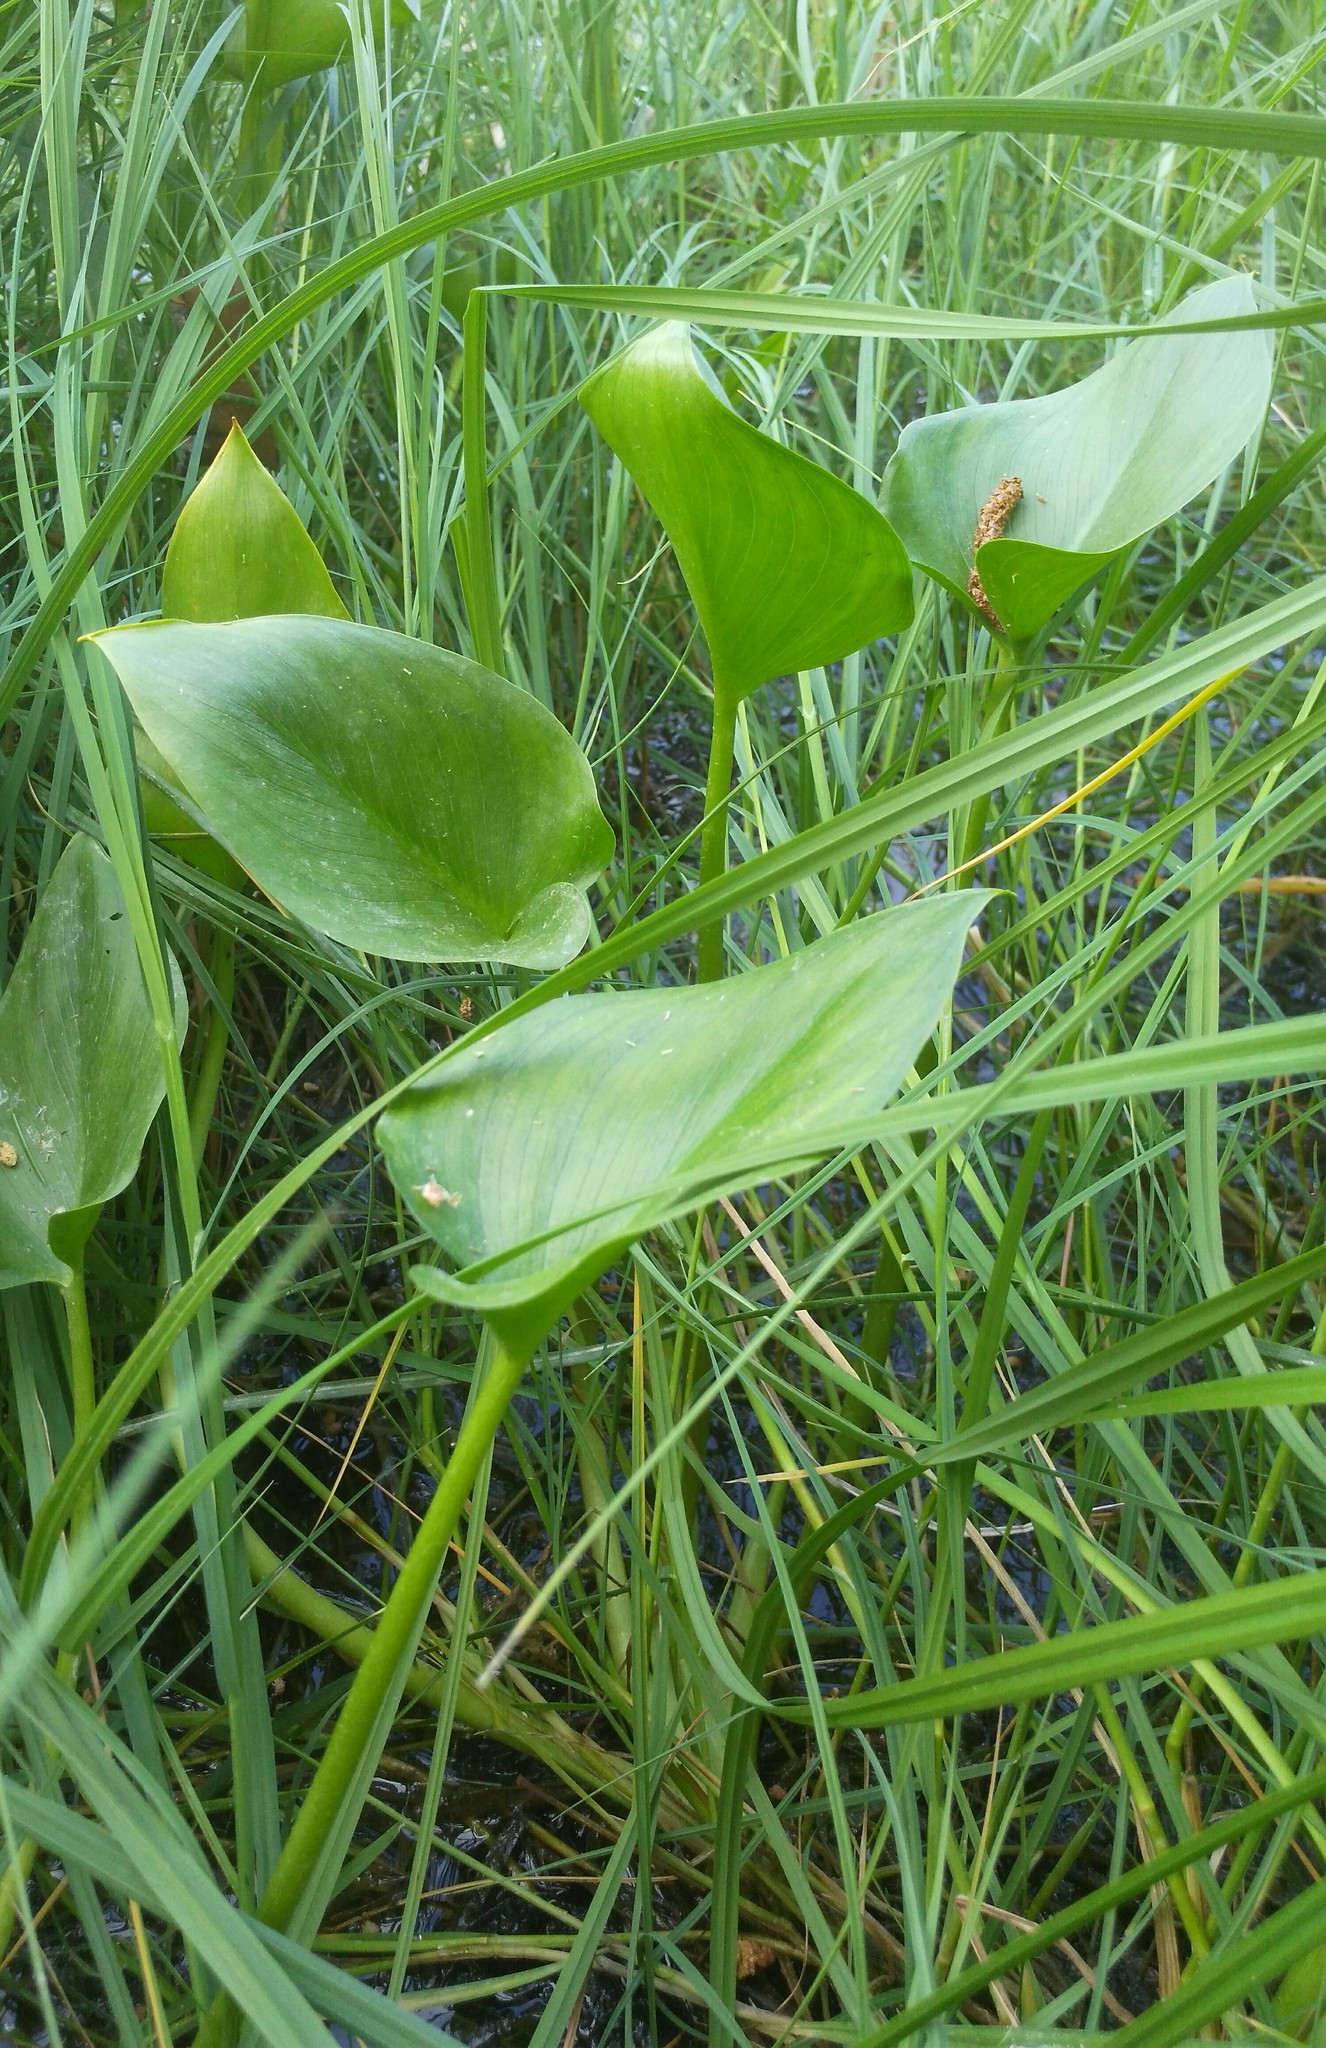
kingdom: Plantae
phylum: Tracheophyta
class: Liliopsida
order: Alismatales
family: Araceae
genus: Calla
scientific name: Calla palustris
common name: Bog arum
